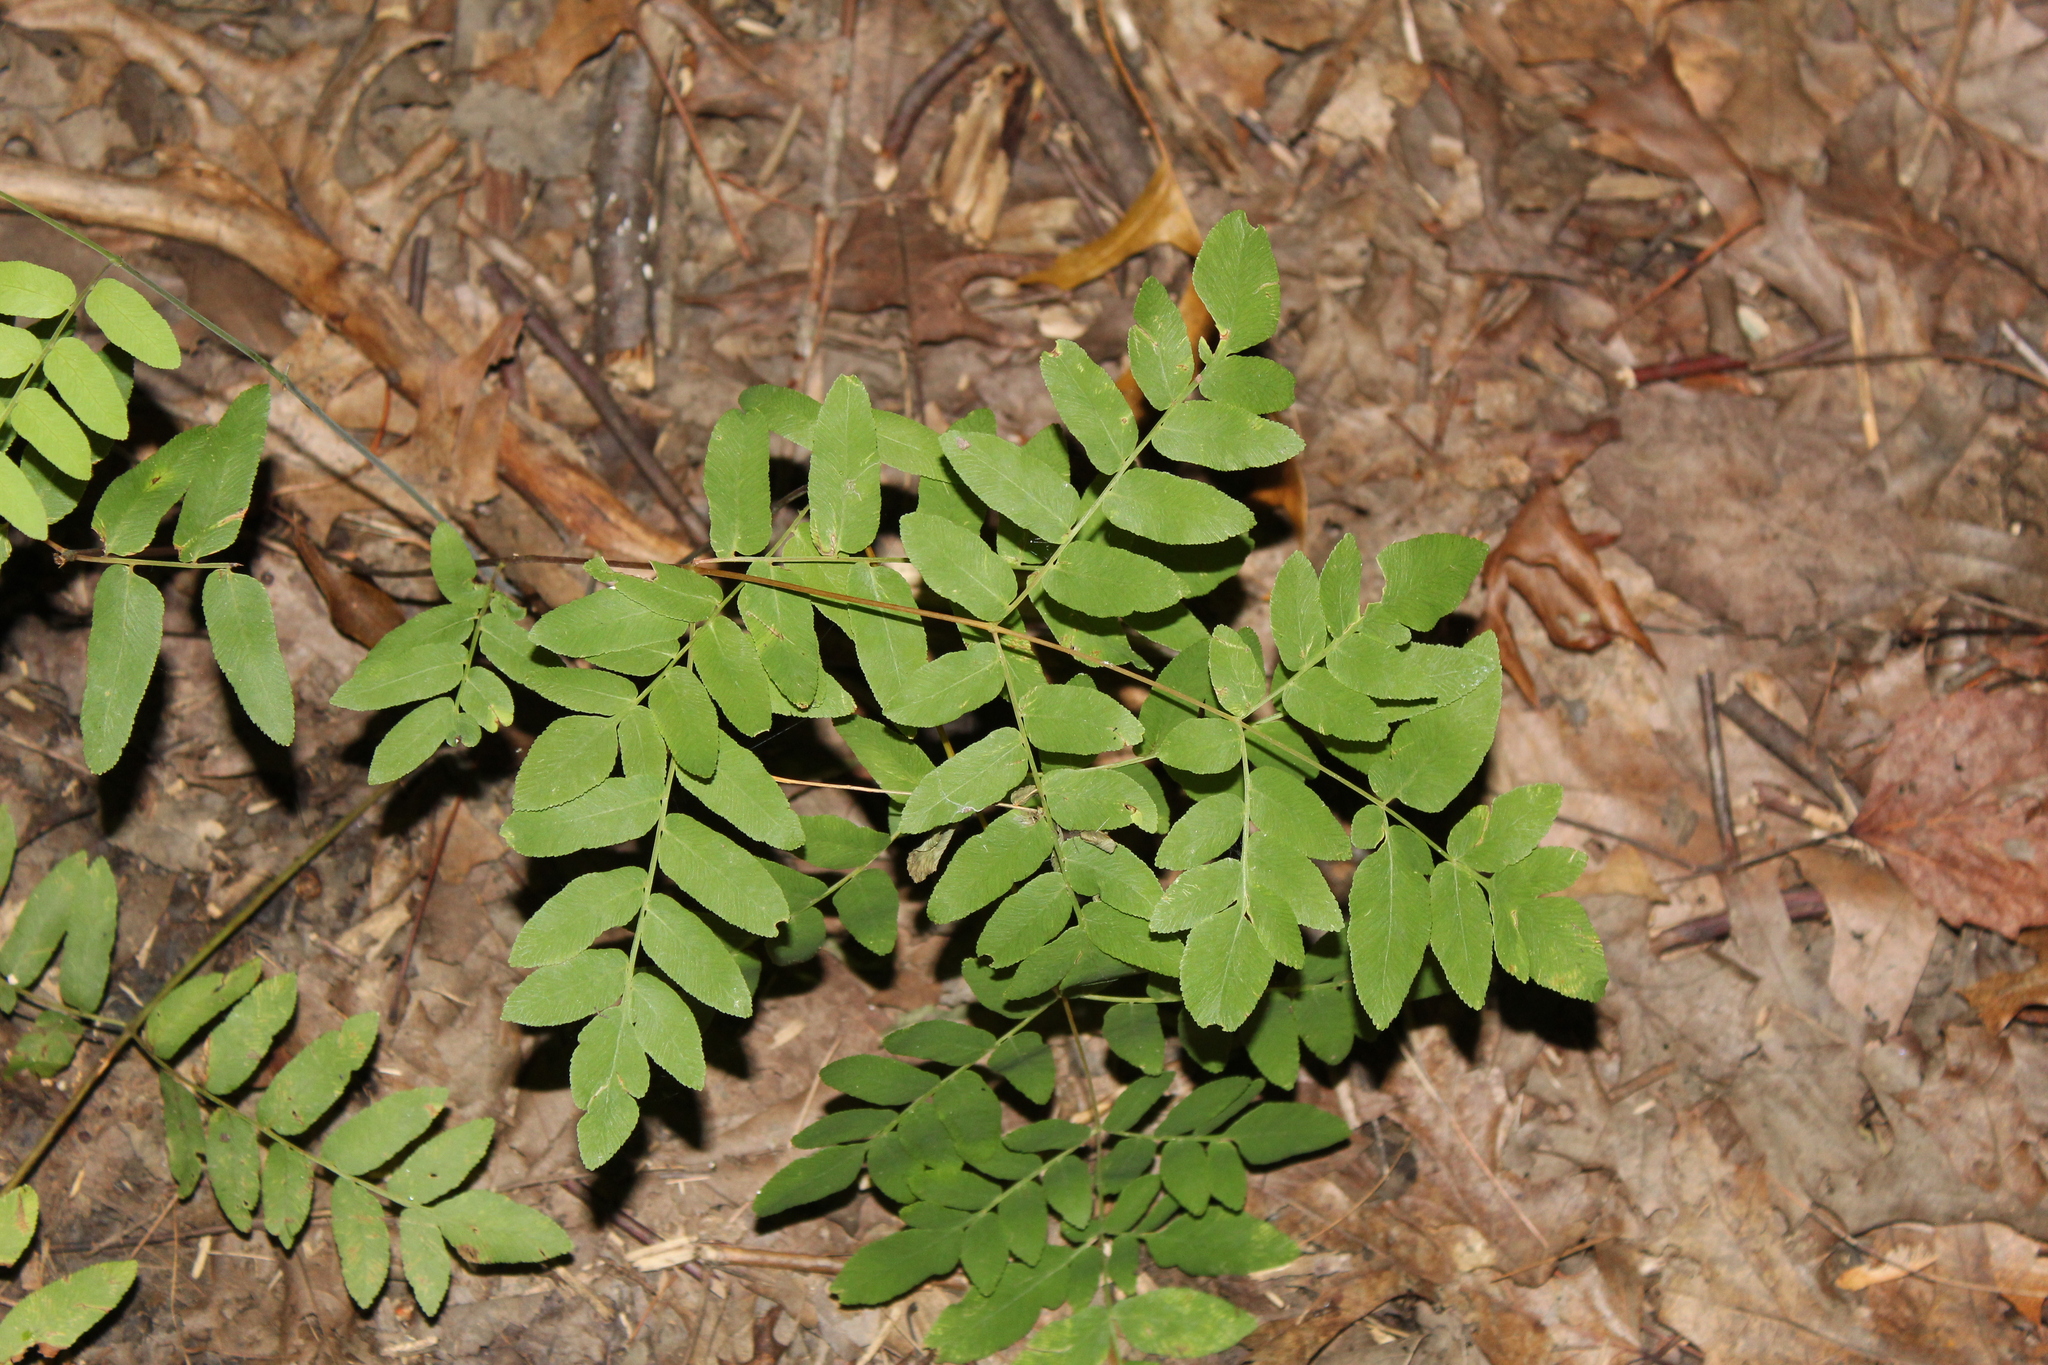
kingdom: Plantae
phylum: Tracheophyta
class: Polypodiopsida
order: Osmundales
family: Osmundaceae
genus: Osmunda
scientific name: Osmunda spectabilis
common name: American royal fern
